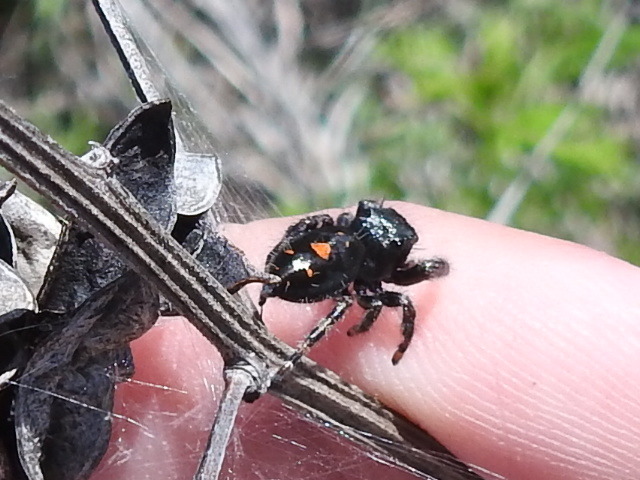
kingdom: Animalia
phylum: Arthropoda
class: Arachnida
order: Araneae
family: Salticidae
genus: Phidippus
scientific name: Phidippus audax
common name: Bold jumper
